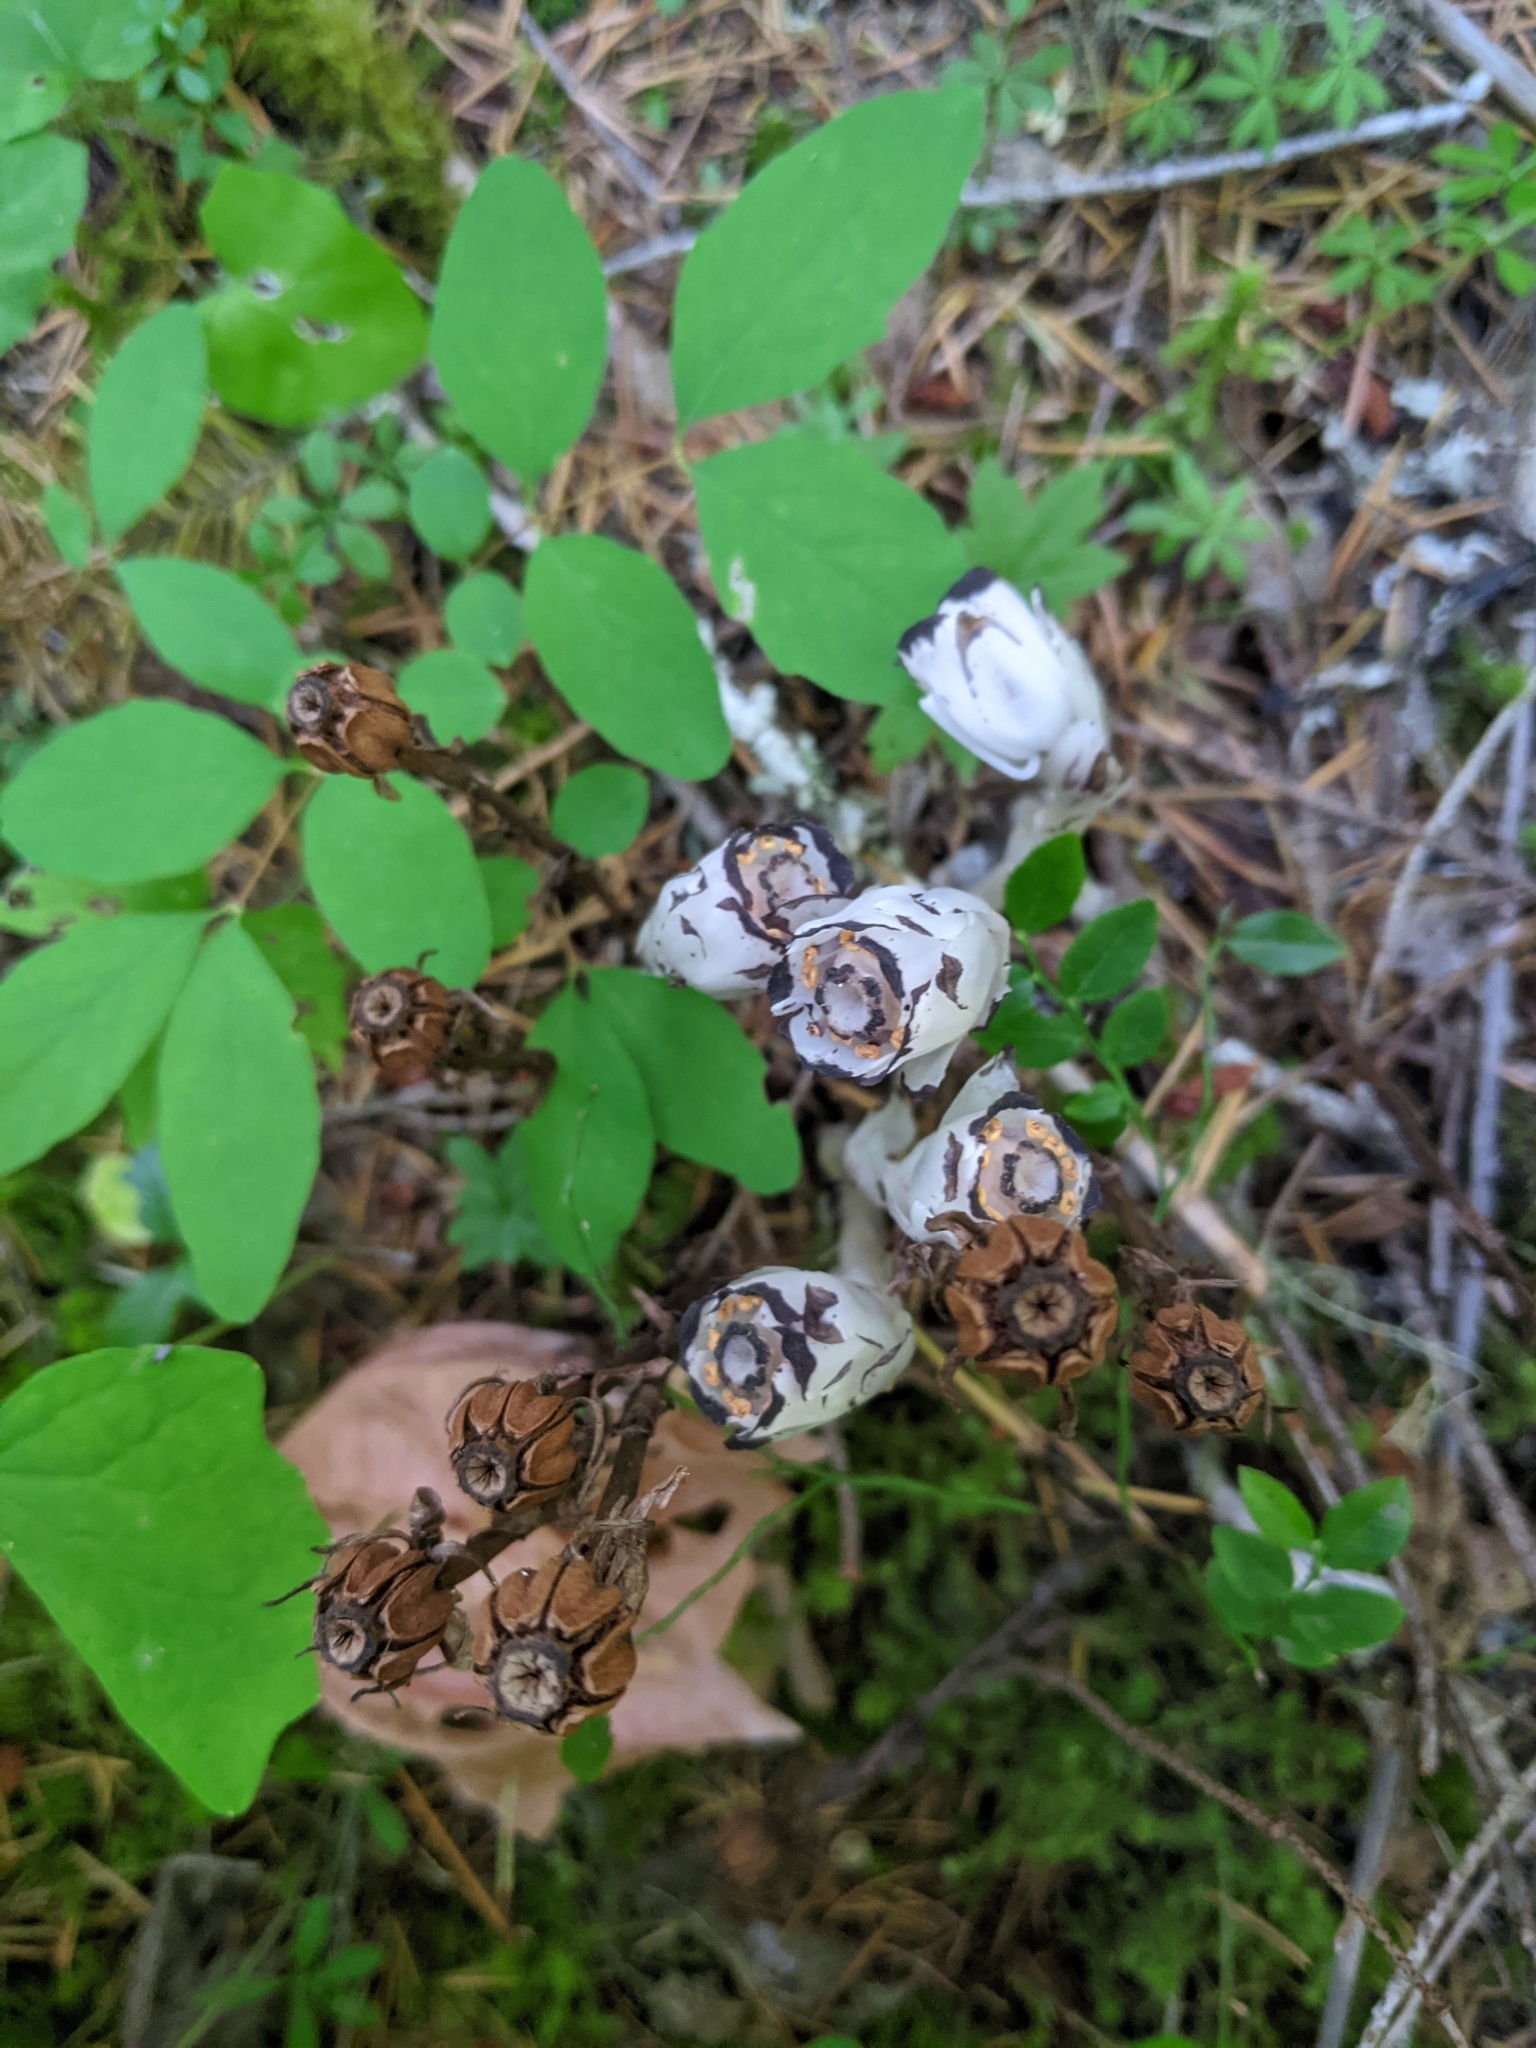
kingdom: Plantae
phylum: Tracheophyta
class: Magnoliopsida
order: Ericales
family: Ericaceae
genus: Monotropa
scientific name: Monotropa uniflora
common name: Convulsion root
